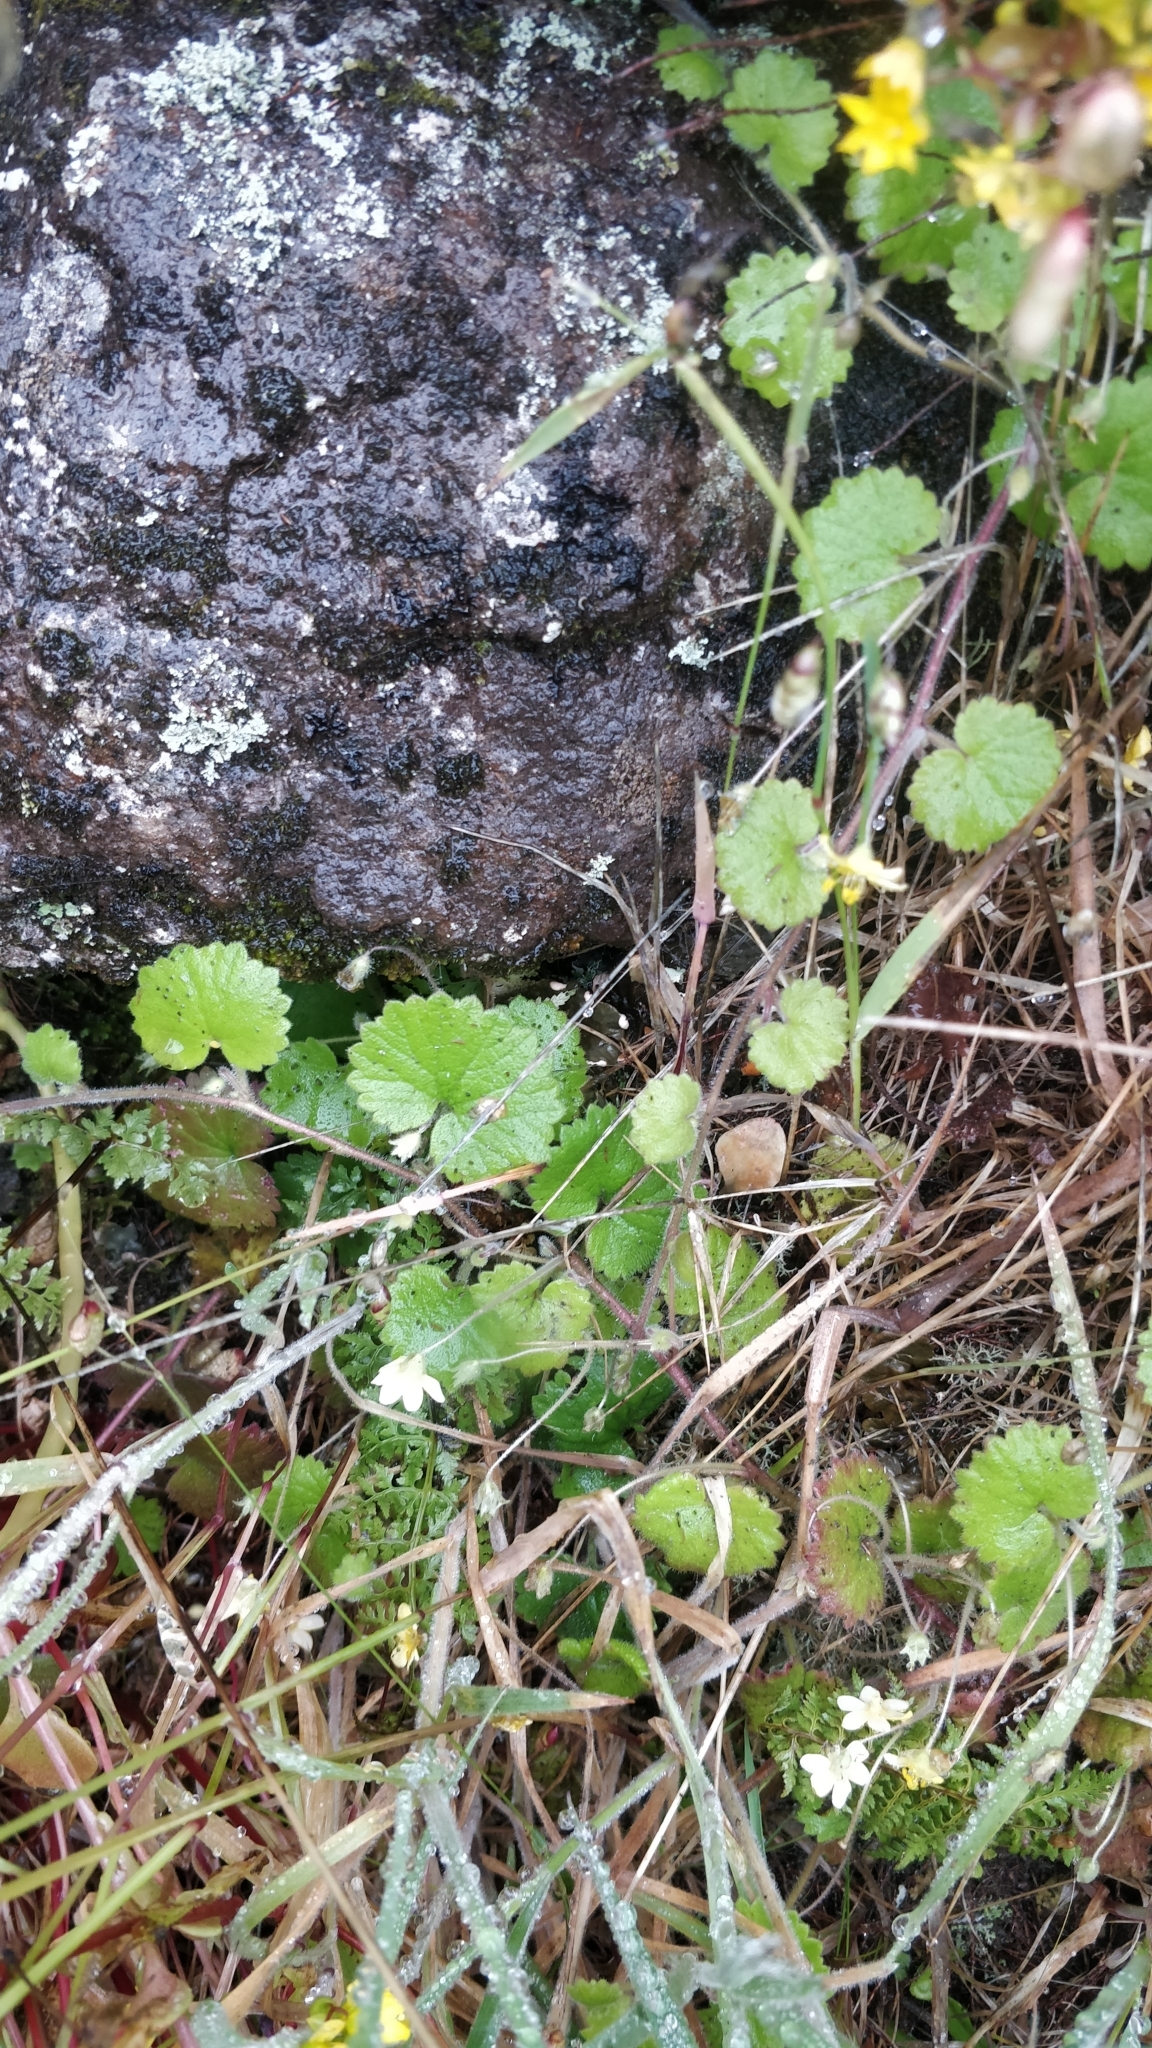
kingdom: Plantae
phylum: Tracheophyta
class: Magnoliopsida
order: Lamiales
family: Plantaginaceae
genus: Sibthorpia
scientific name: Sibthorpia peregrina
